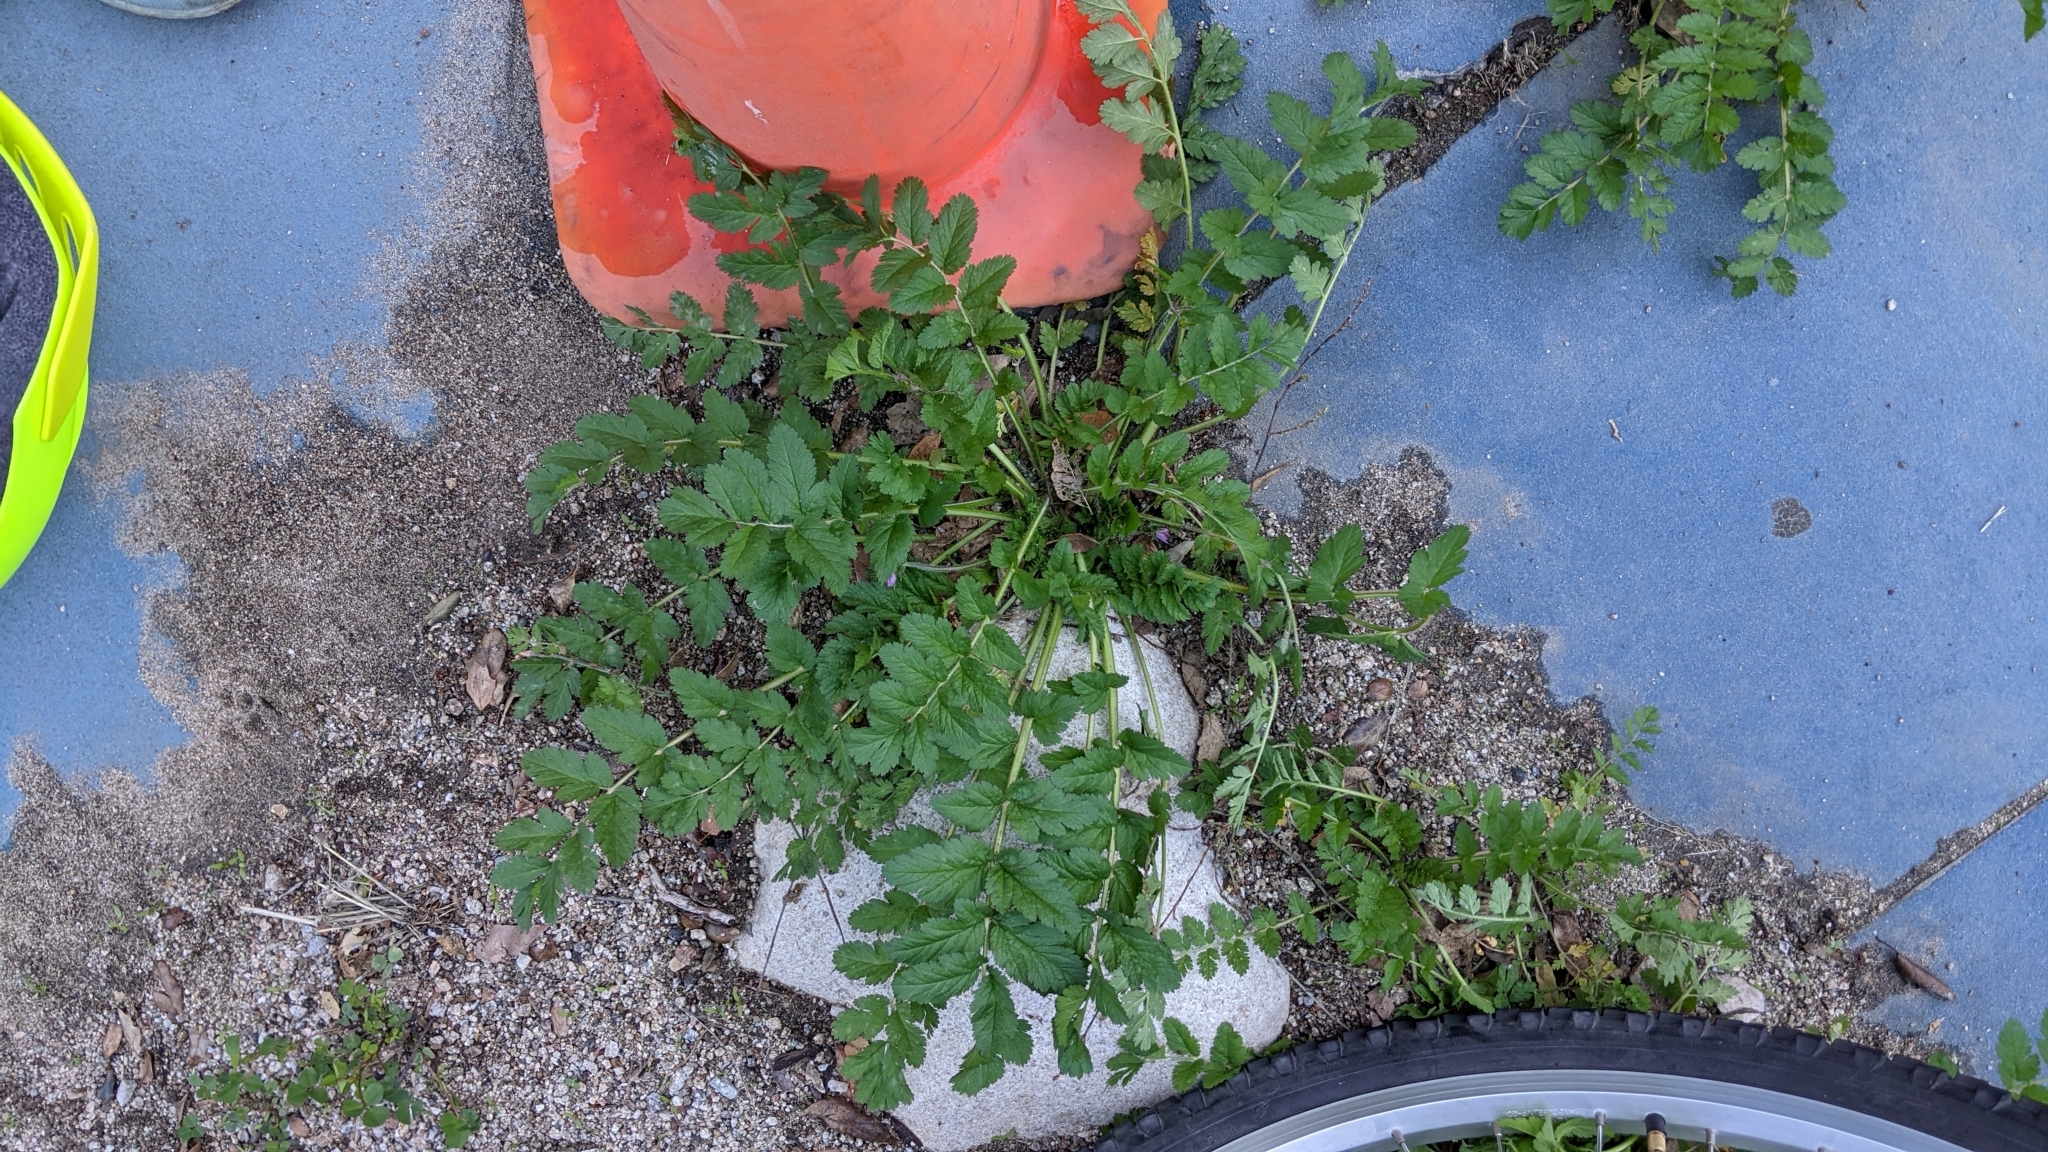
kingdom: Plantae
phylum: Tracheophyta
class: Magnoliopsida
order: Geraniales
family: Geraniaceae
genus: Erodium
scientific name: Erodium moschatum
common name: Musk stork's-bill
